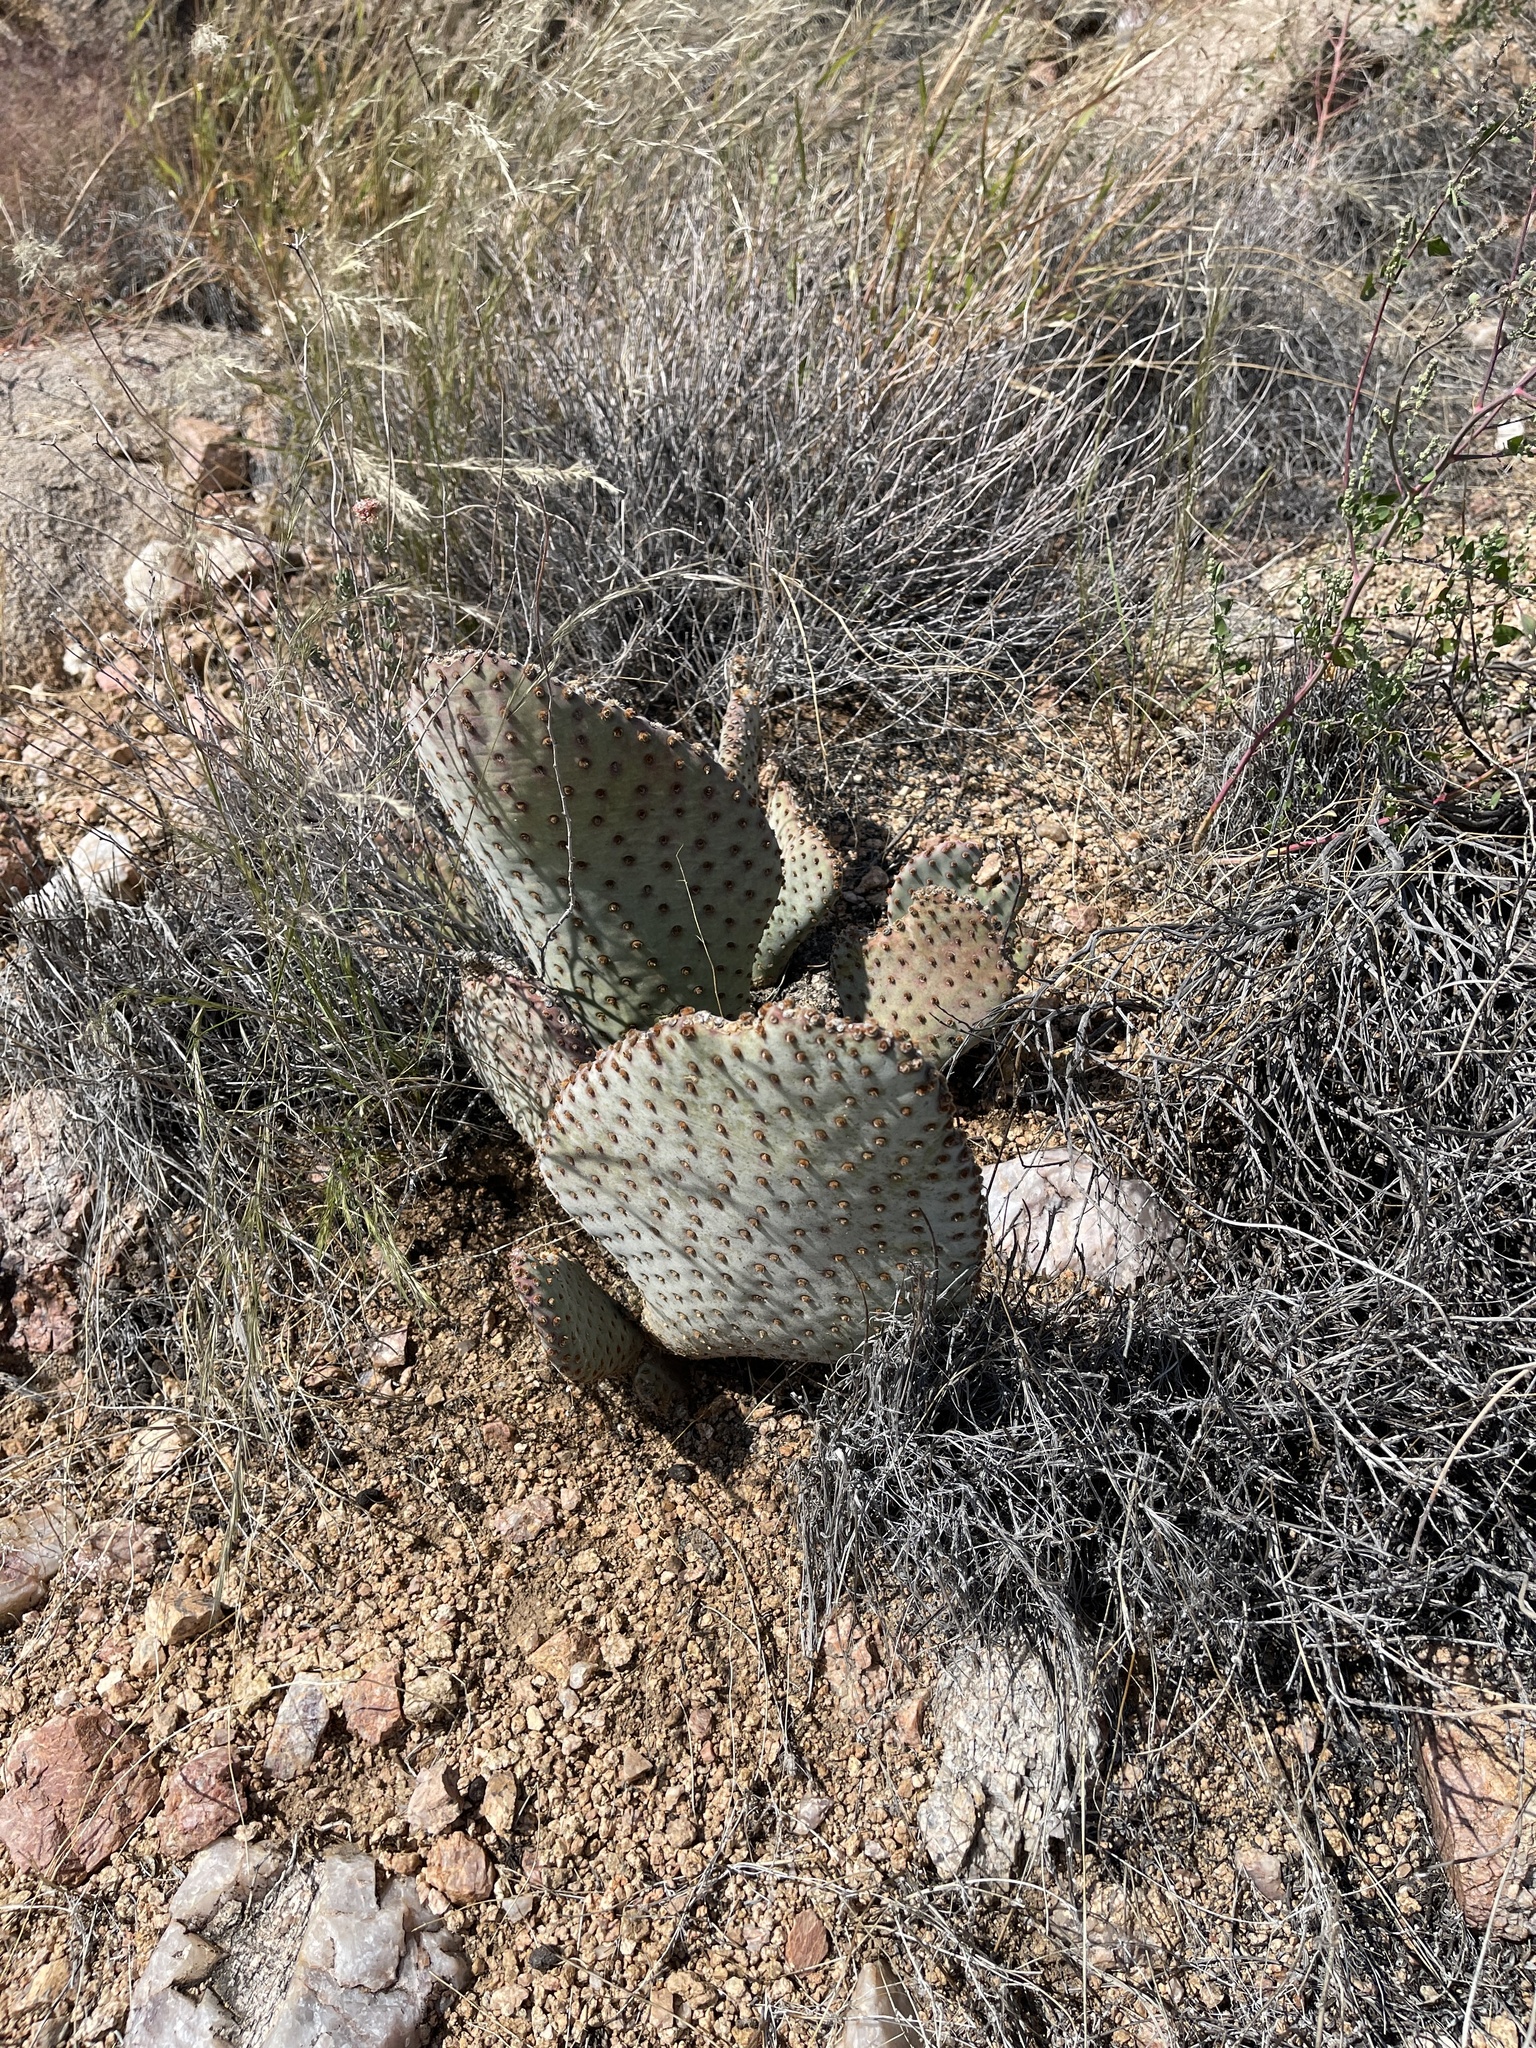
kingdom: Plantae
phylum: Tracheophyta
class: Magnoliopsida
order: Caryophyllales
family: Cactaceae
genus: Opuntia
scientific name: Opuntia basilaris
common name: Beavertail prickly-pear
